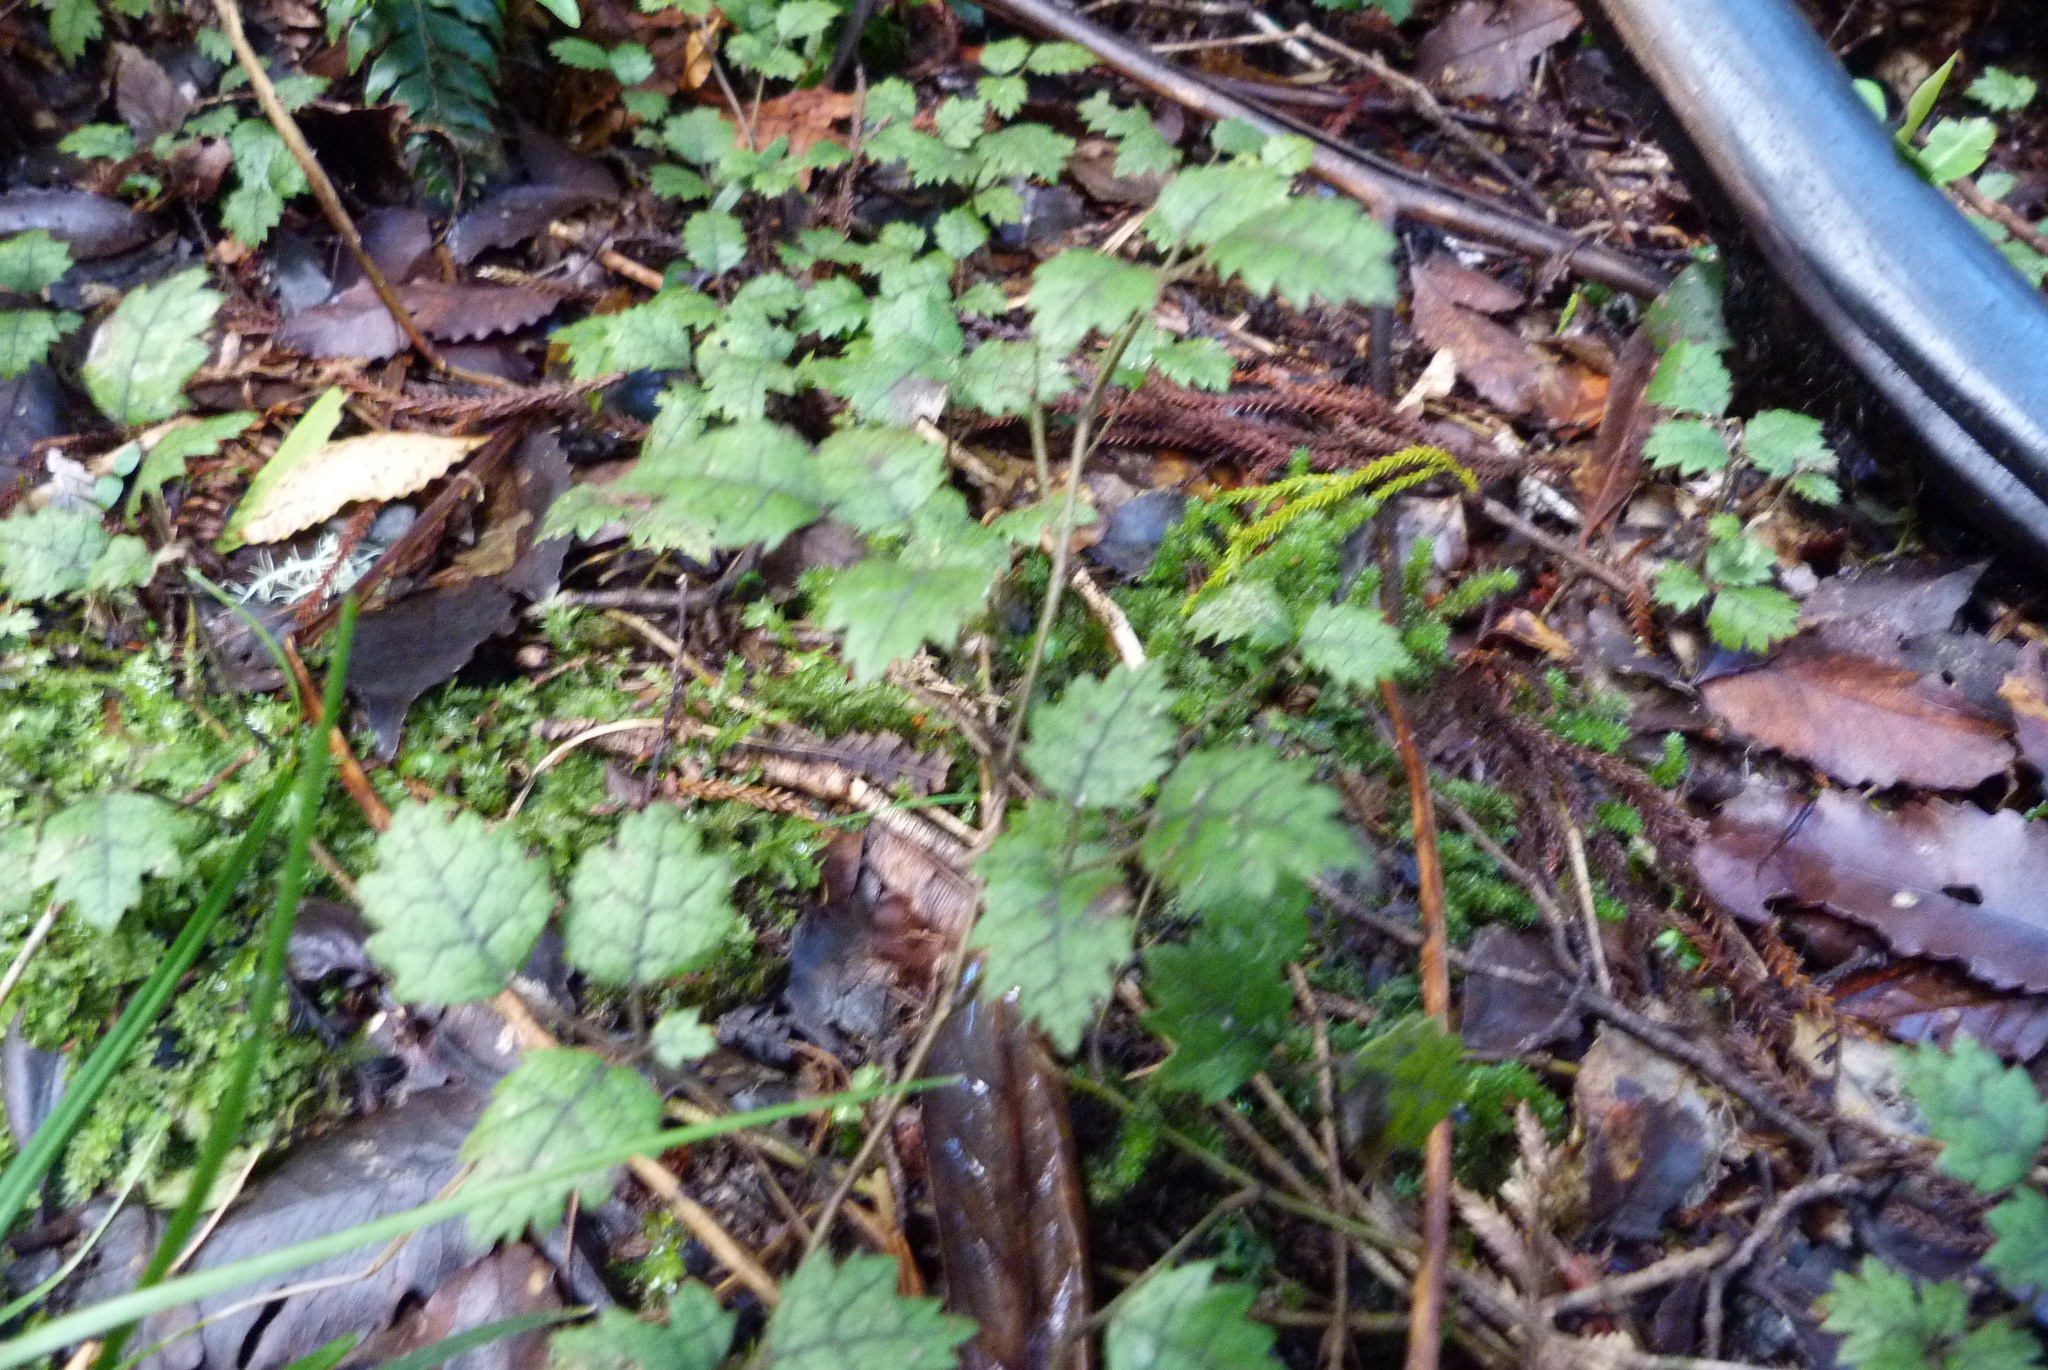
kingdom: Plantae
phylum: Tracheophyta
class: Magnoliopsida
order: Rosales
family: Rosaceae
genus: Rubus
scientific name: Rubus australis
